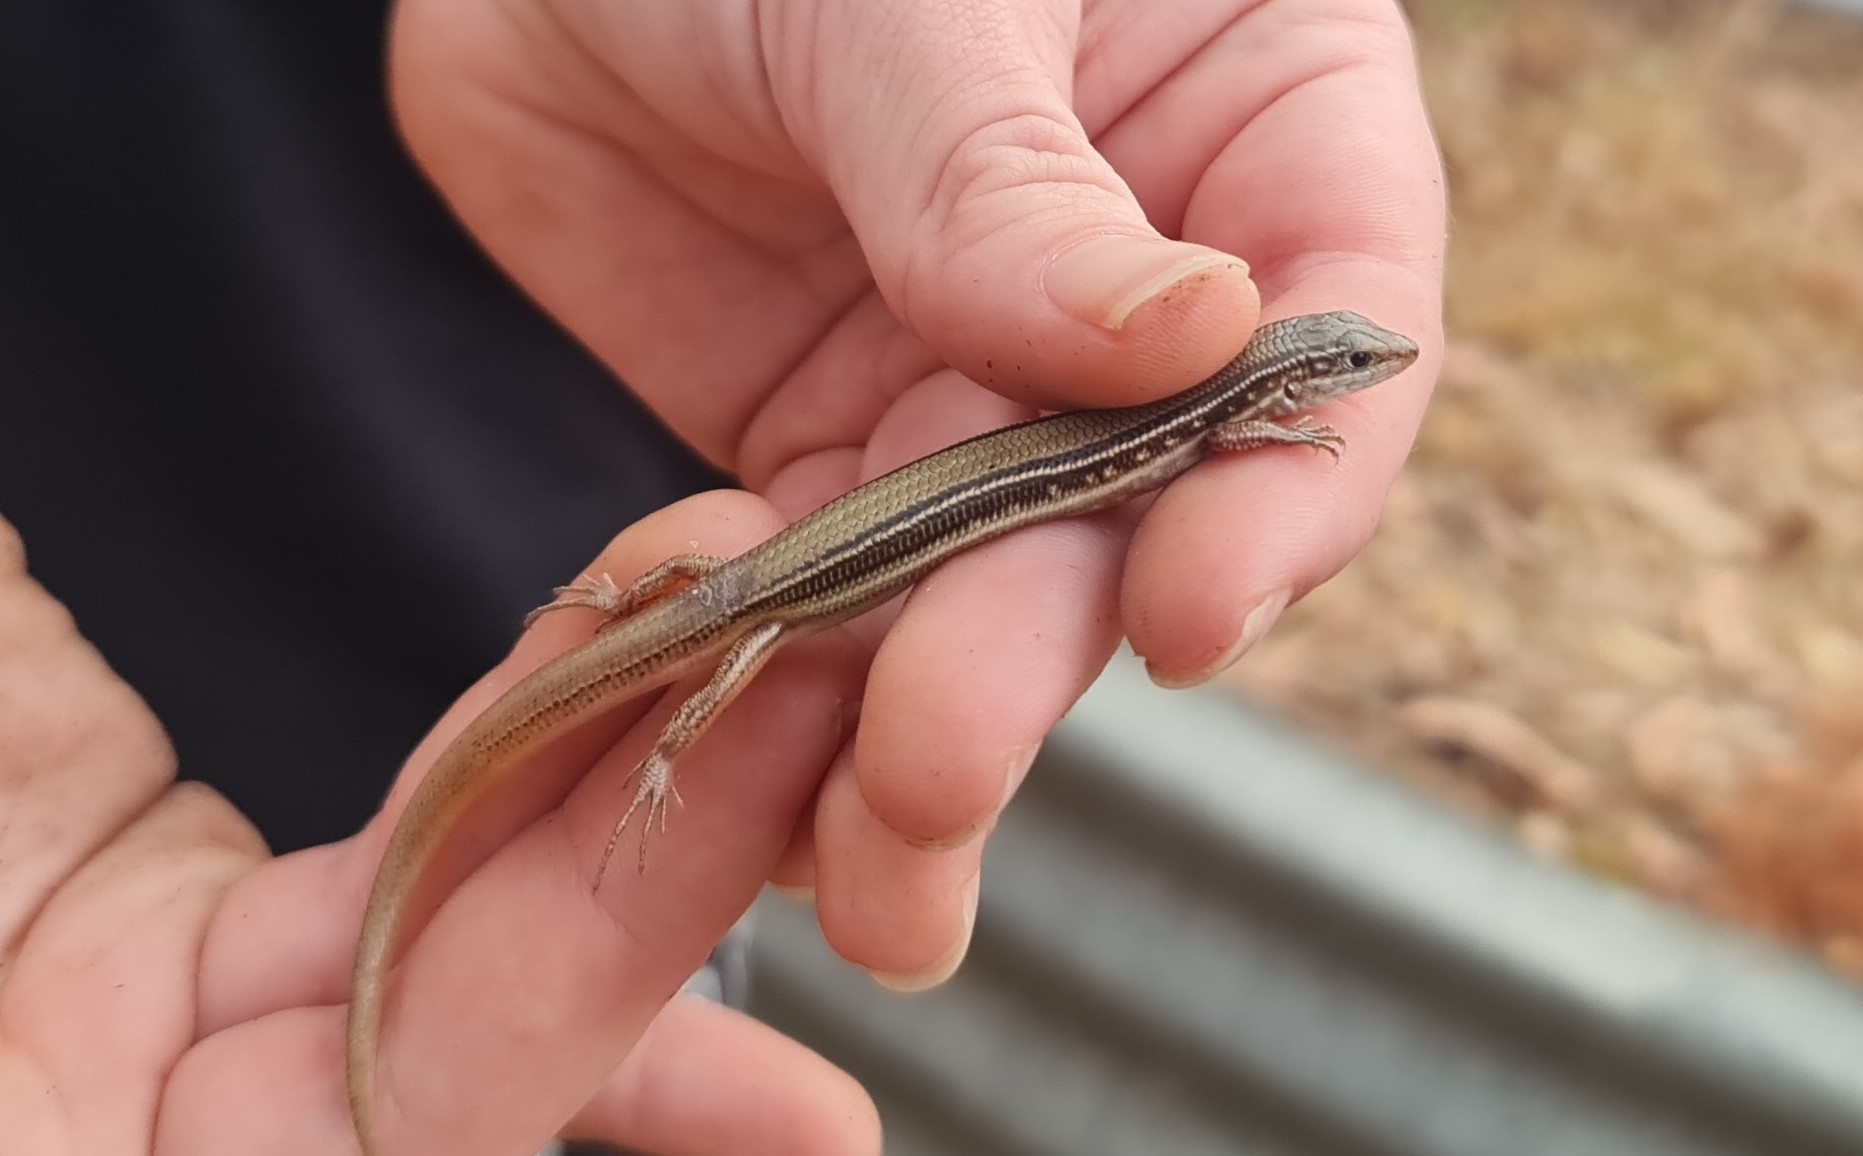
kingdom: Animalia
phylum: Chordata
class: Squamata
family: Scincidae
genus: Ctenotus
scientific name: Ctenotus essingtonii
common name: Lowlands plain-backed ctenotus
